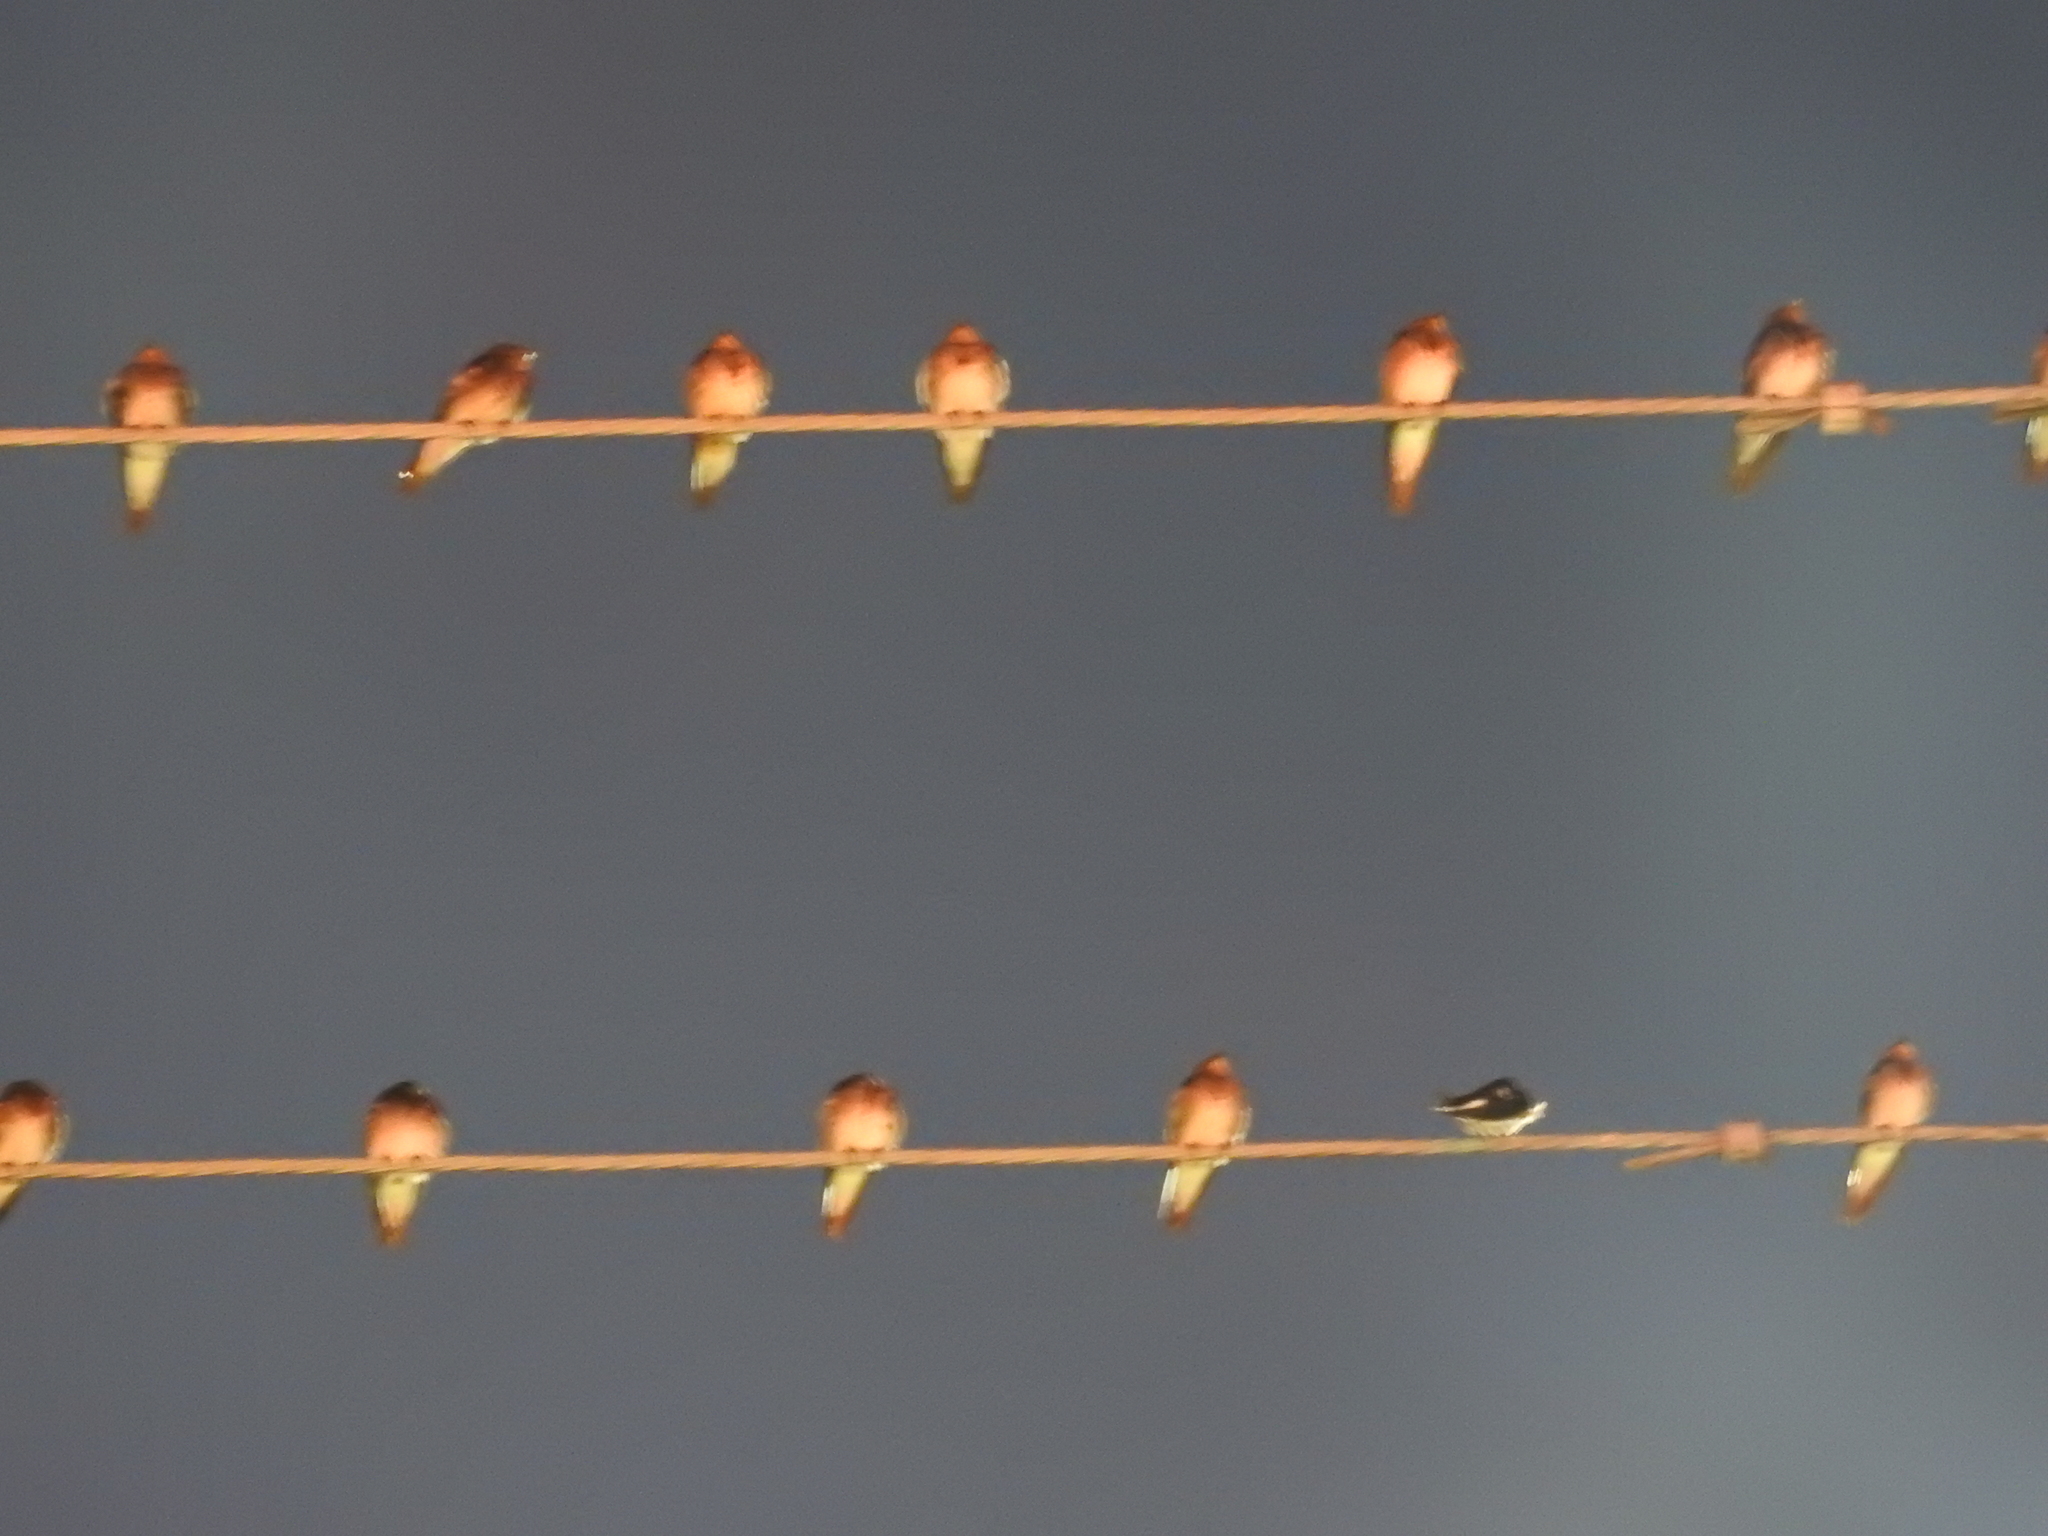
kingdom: Animalia
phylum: Chordata
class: Aves
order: Passeriformes
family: Hirundinidae
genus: Hirundo
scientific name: Hirundo rustica
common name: Barn swallow
